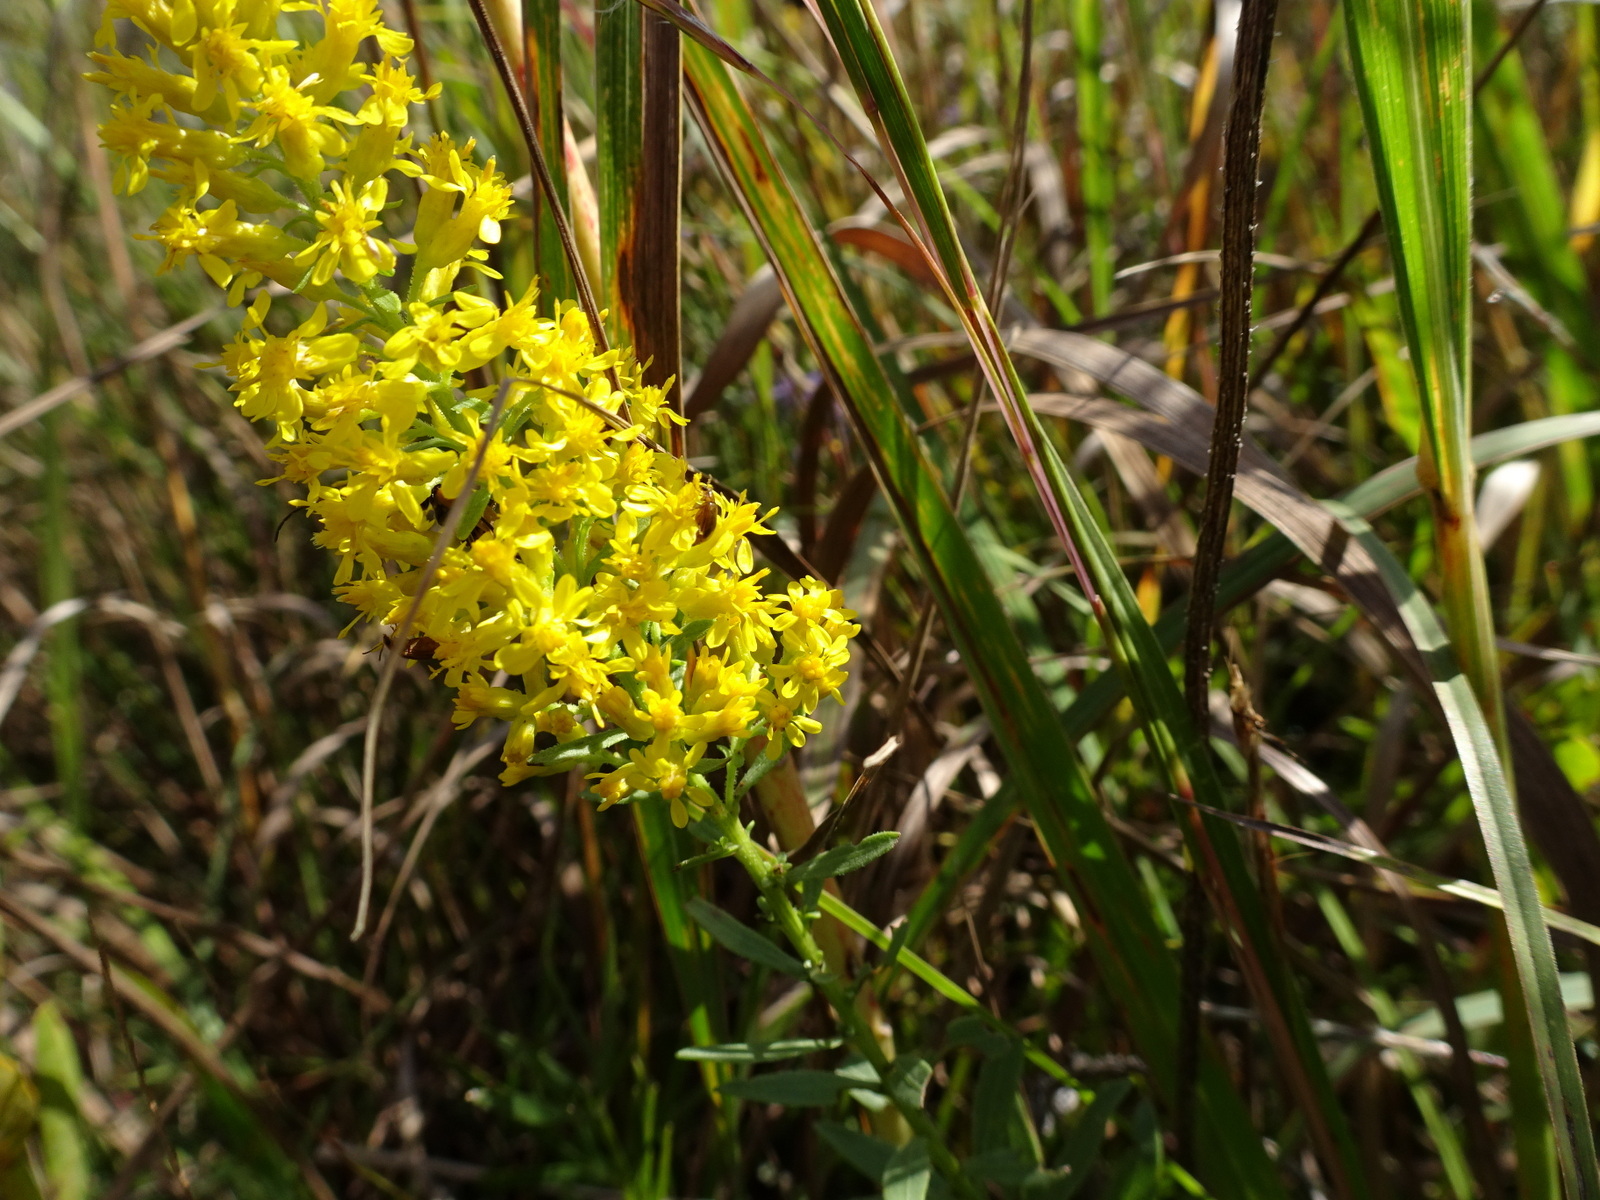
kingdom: Plantae
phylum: Tracheophyta
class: Magnoliopsida
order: Asterales
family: Asteraceae
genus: Solidago
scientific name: Solidago rigidiuscula
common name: Stiff-leaved showy goldenrod
